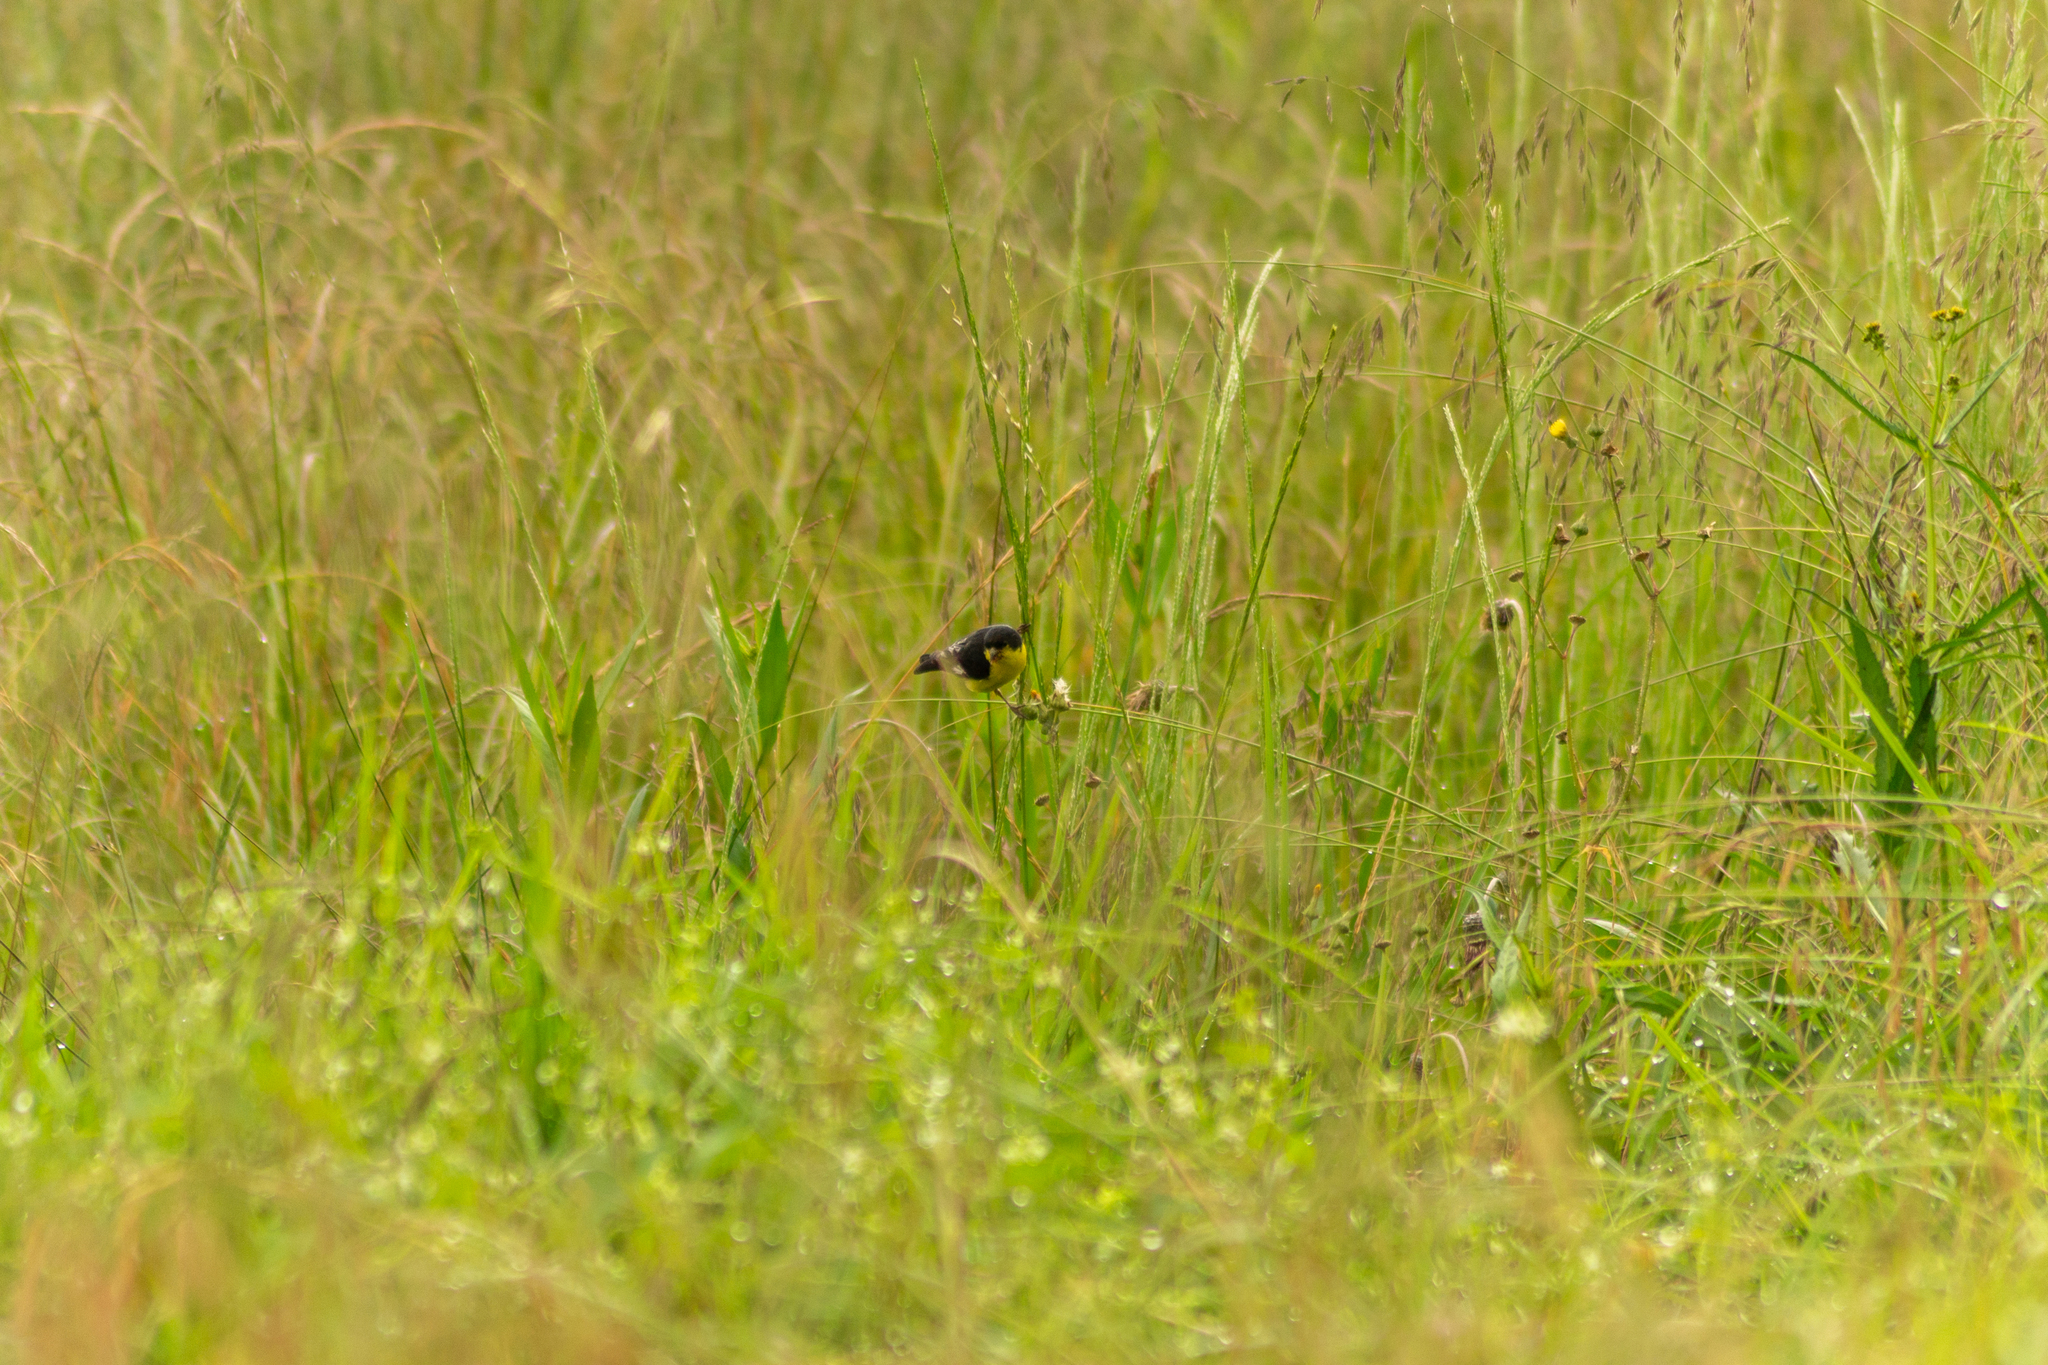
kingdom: Animalia
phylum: Chordata
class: Aves
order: Passeriformes
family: Fringillidae
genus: Spinus
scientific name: Spinus psaltria
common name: Lesser goldfinch
